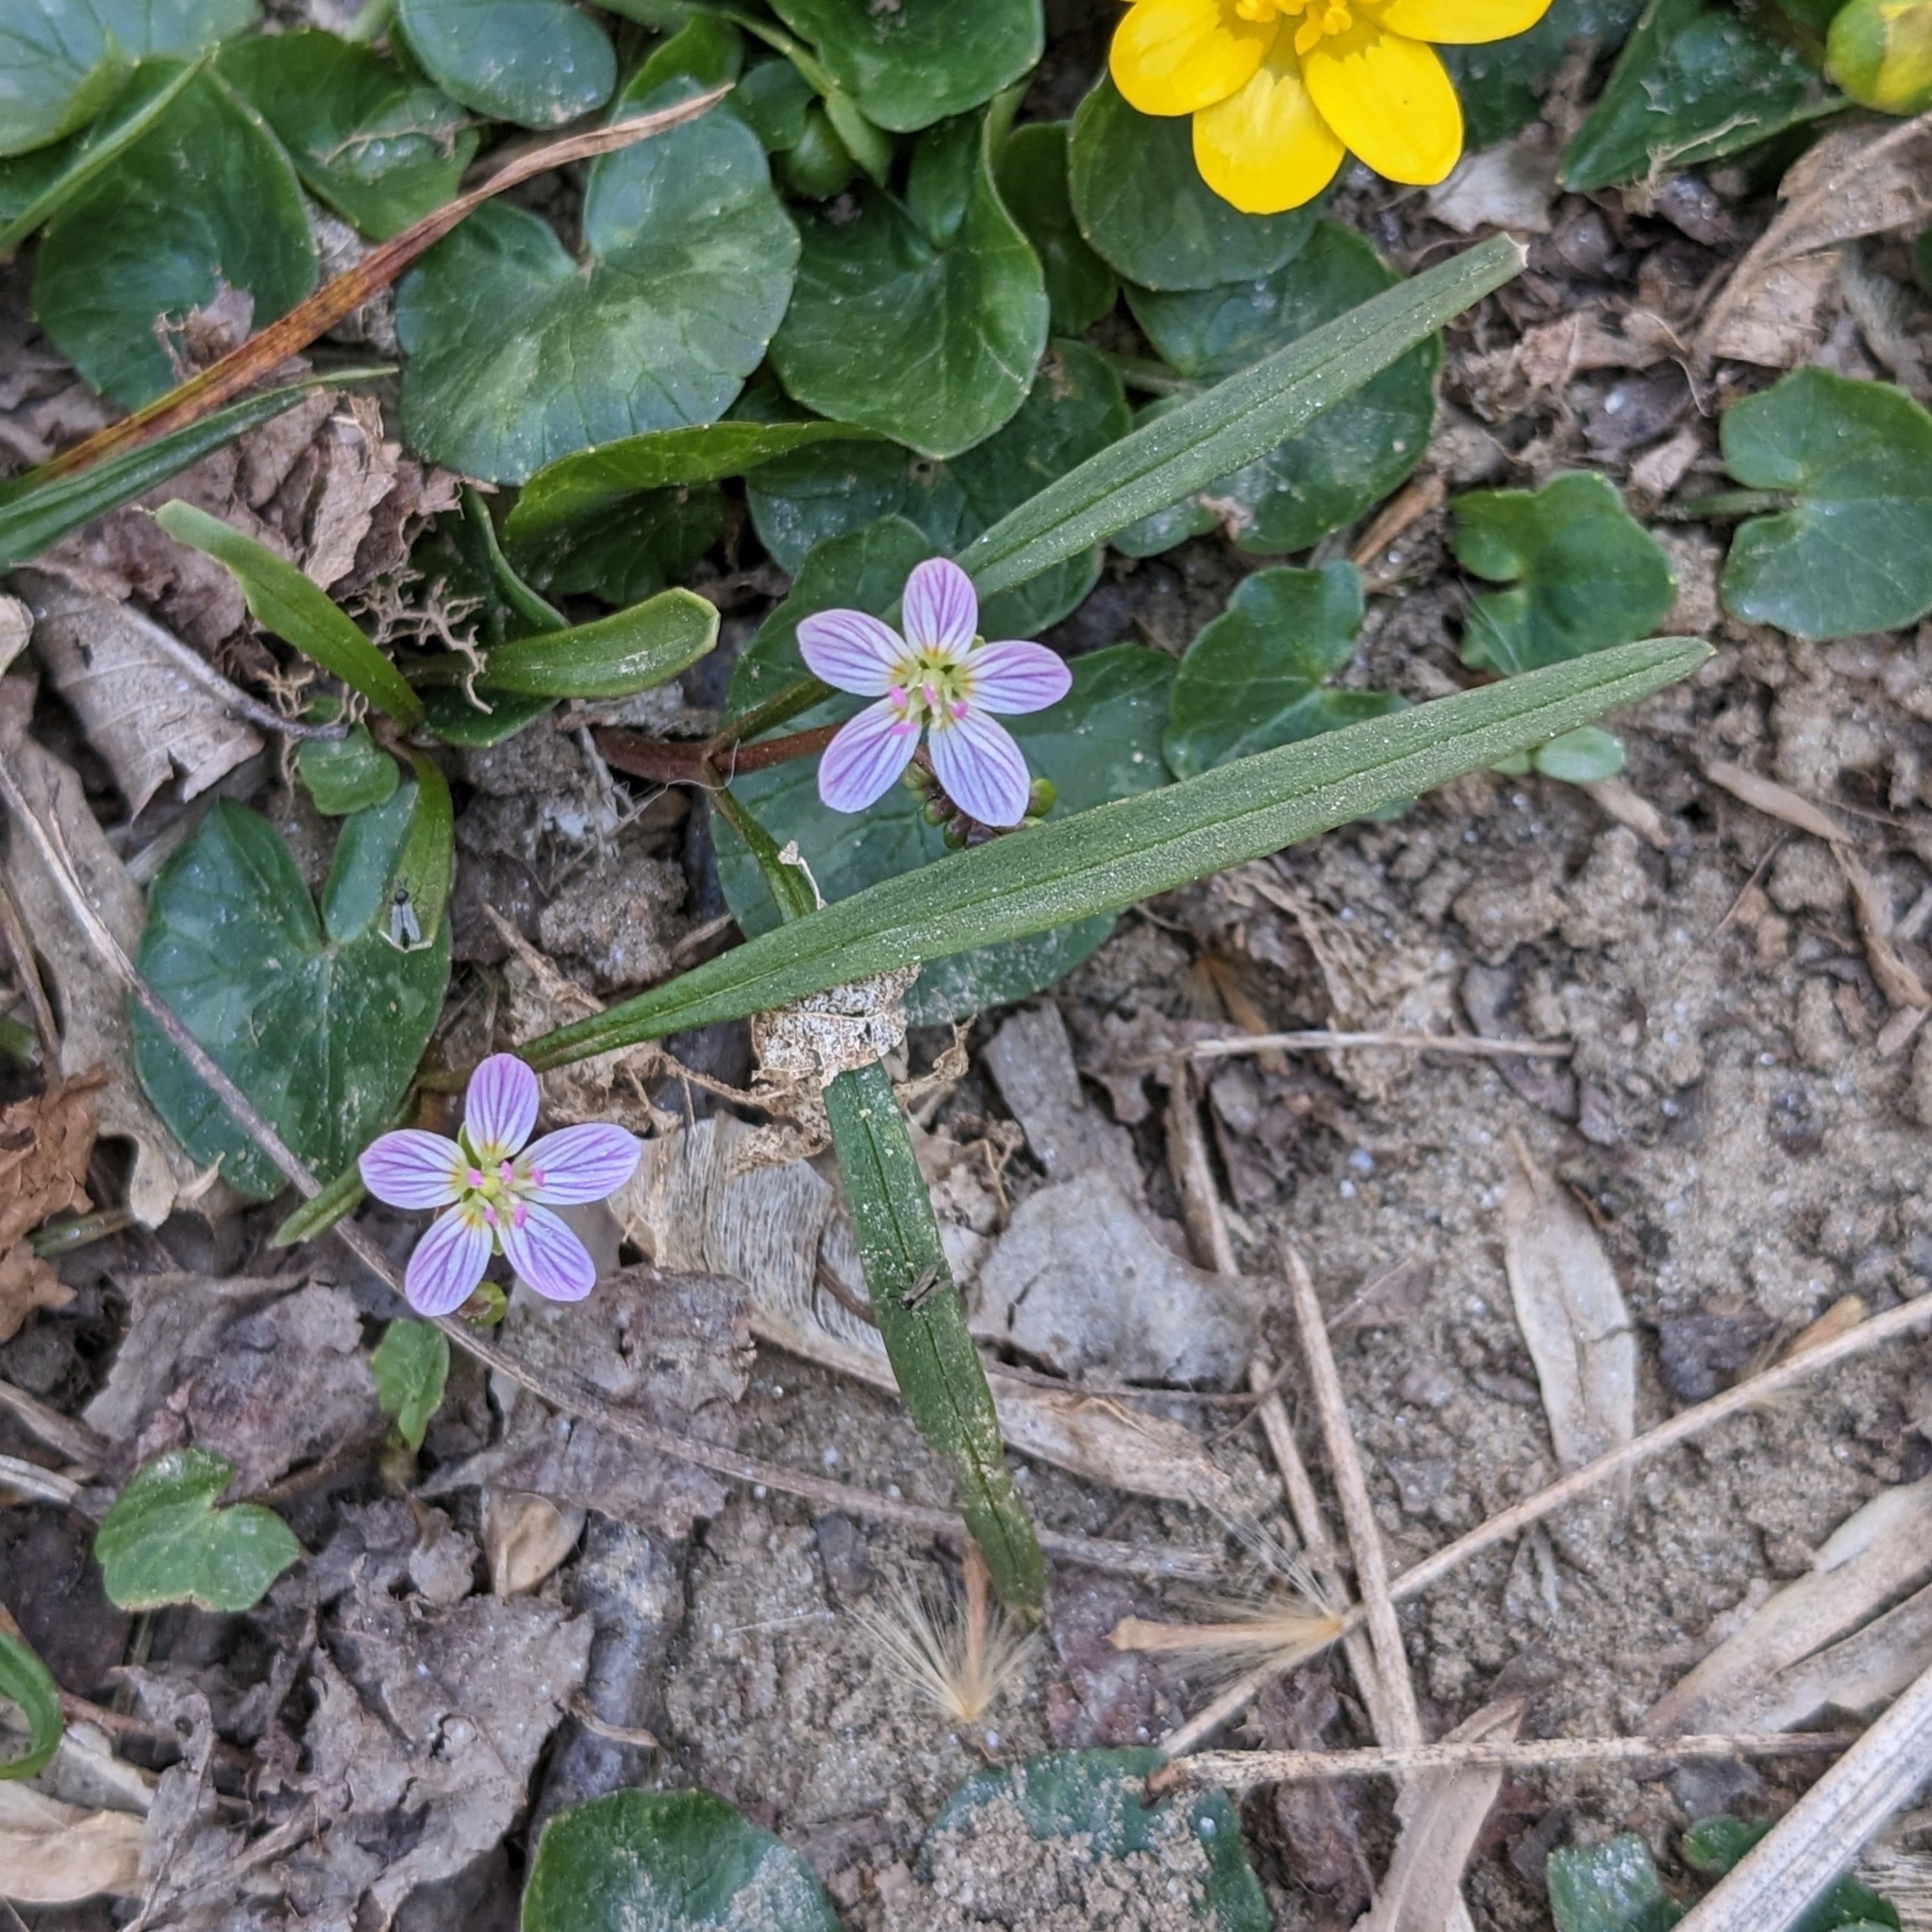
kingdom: Plantae
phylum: Tracheophyta
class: Magnoliopsida
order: Caryophyllales
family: Montiaceae
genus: Claytonia
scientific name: Claytonia virginica
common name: Virginia springbeauty
